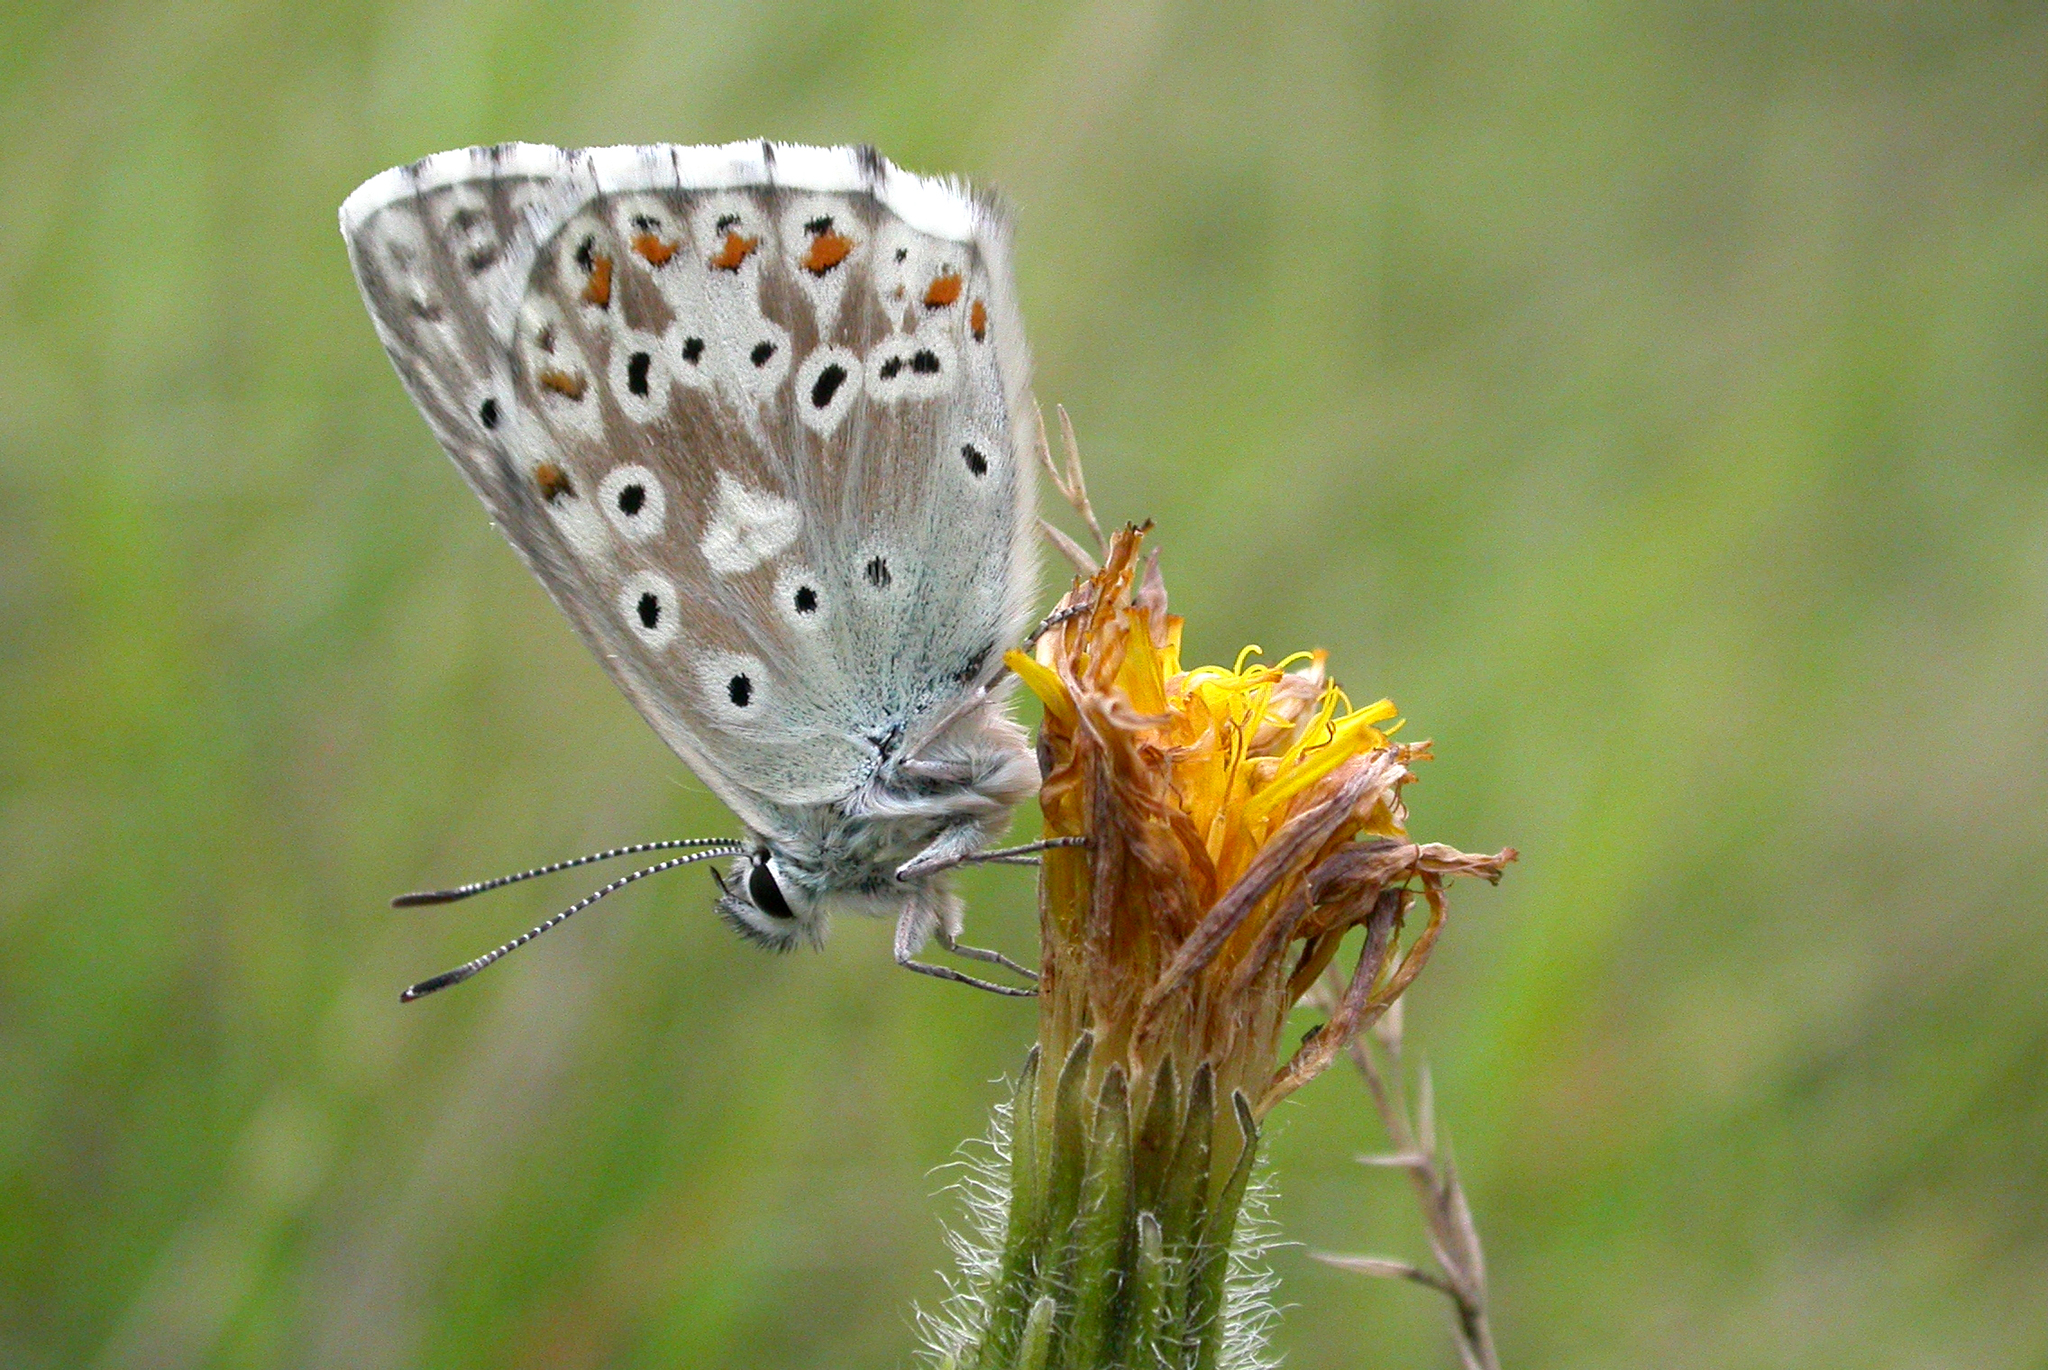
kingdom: Animalia
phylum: Arthropoda
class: Insecta
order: Lepidoptera
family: Lycaenidae
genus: Lysandra
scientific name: Lysandra coridon
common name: Chalkhill blue
